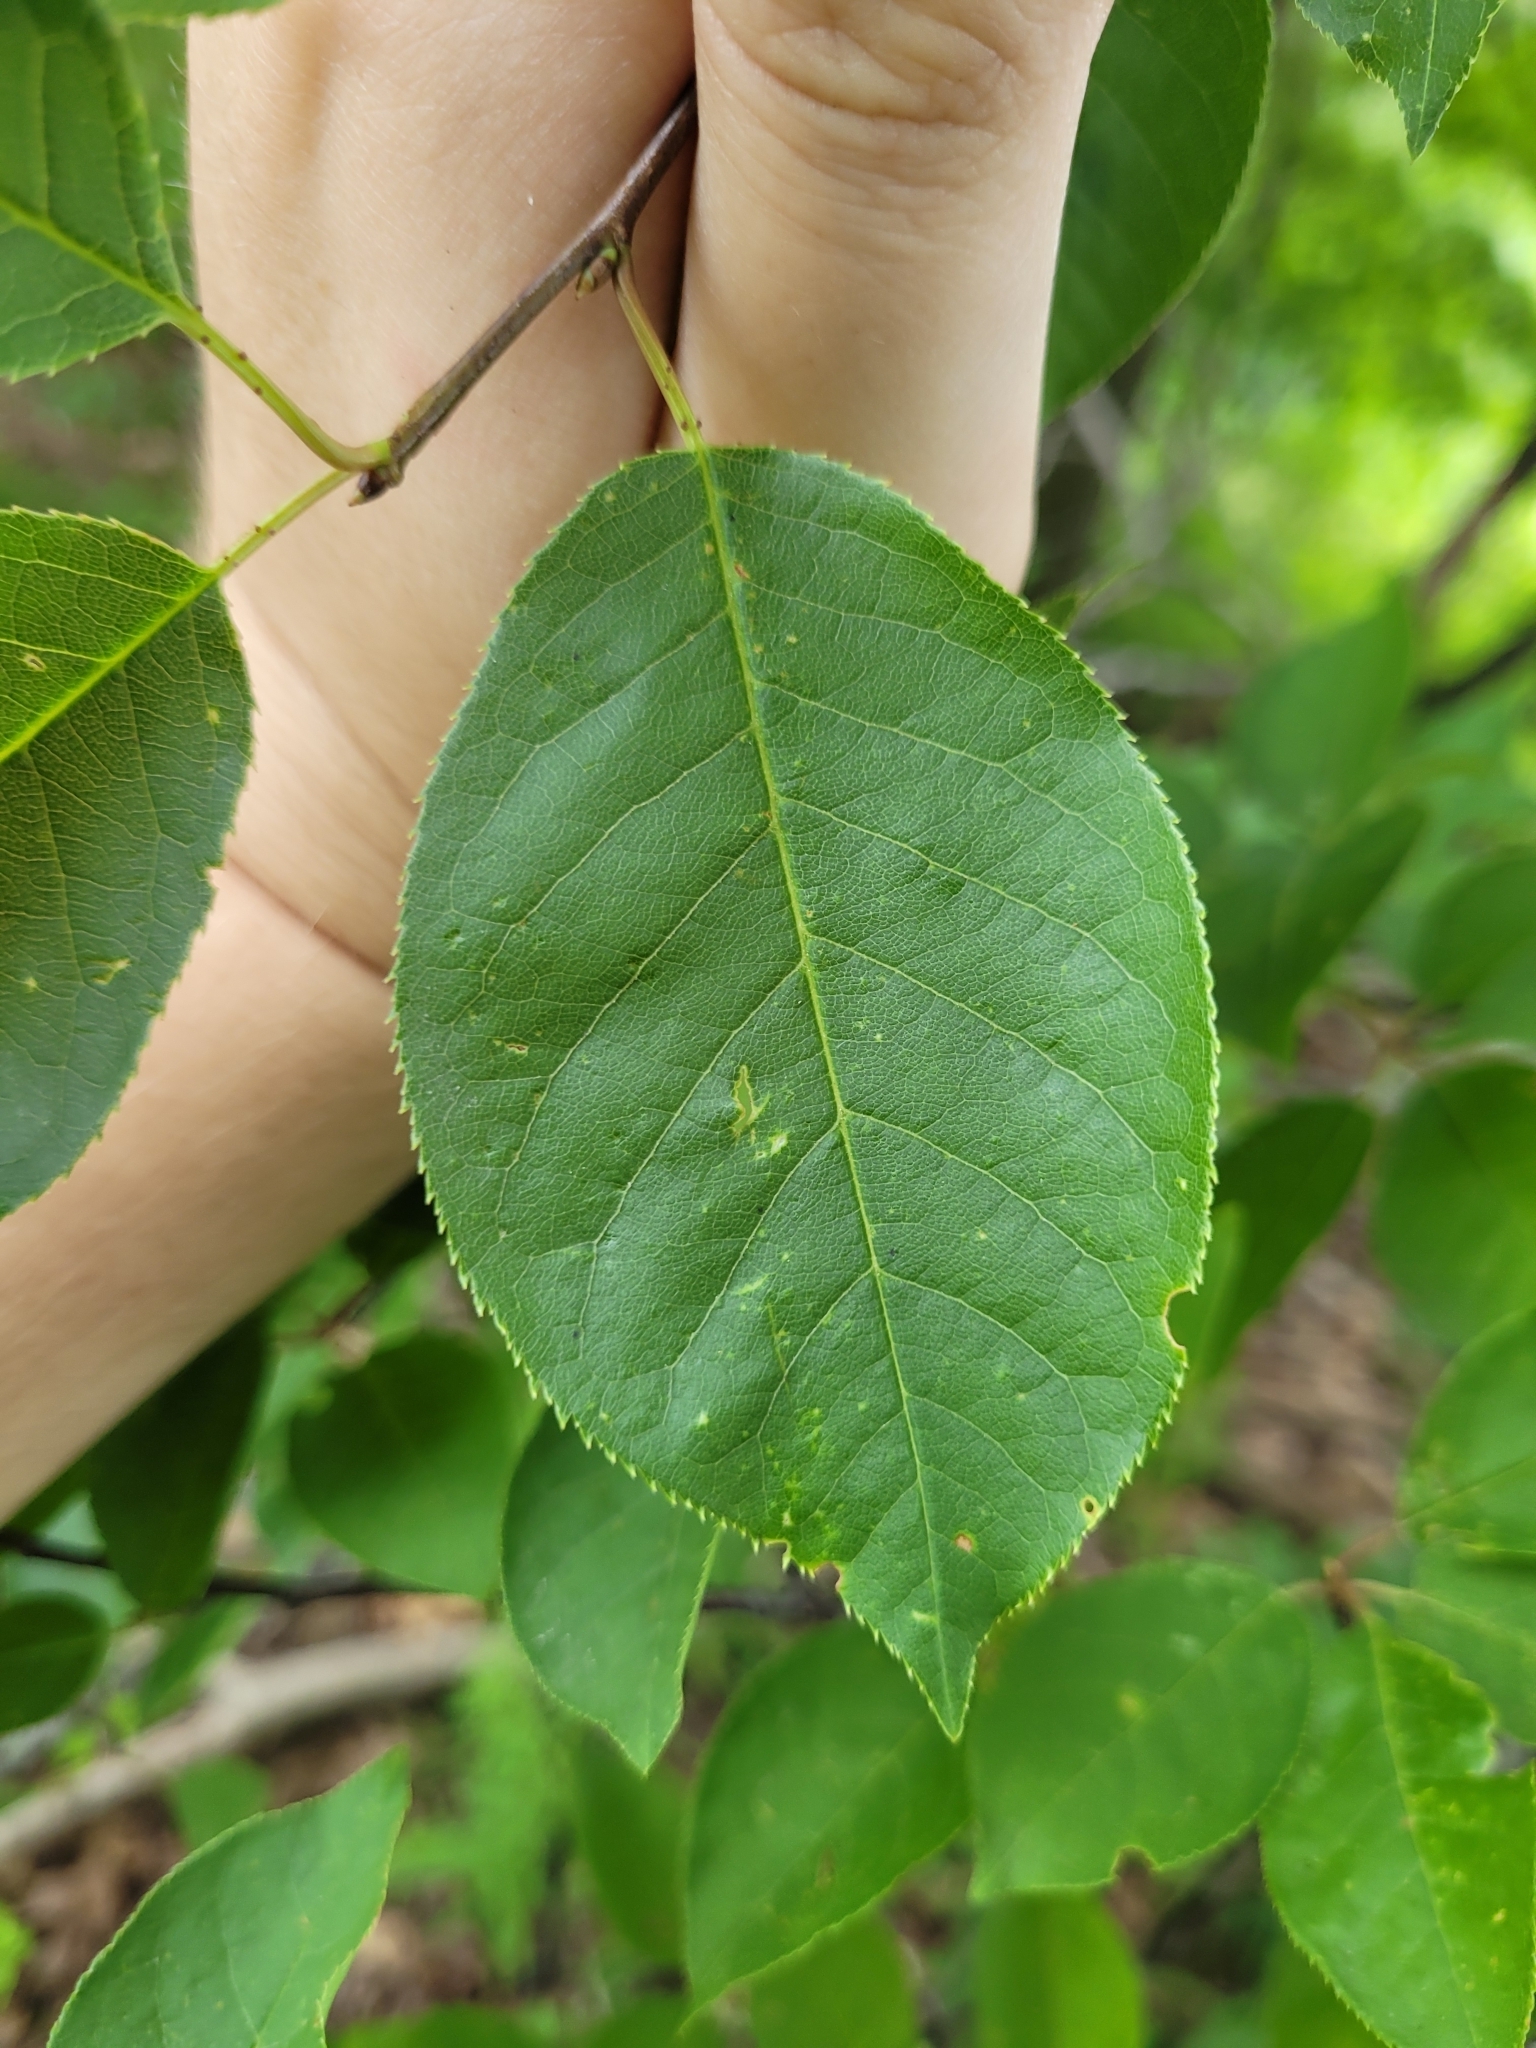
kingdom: Plantae
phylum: Tracheophyta
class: Magnoliopsida
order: Rosales
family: Rosaceae
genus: Prunus
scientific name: Prunus virginiana
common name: Chokecherry
